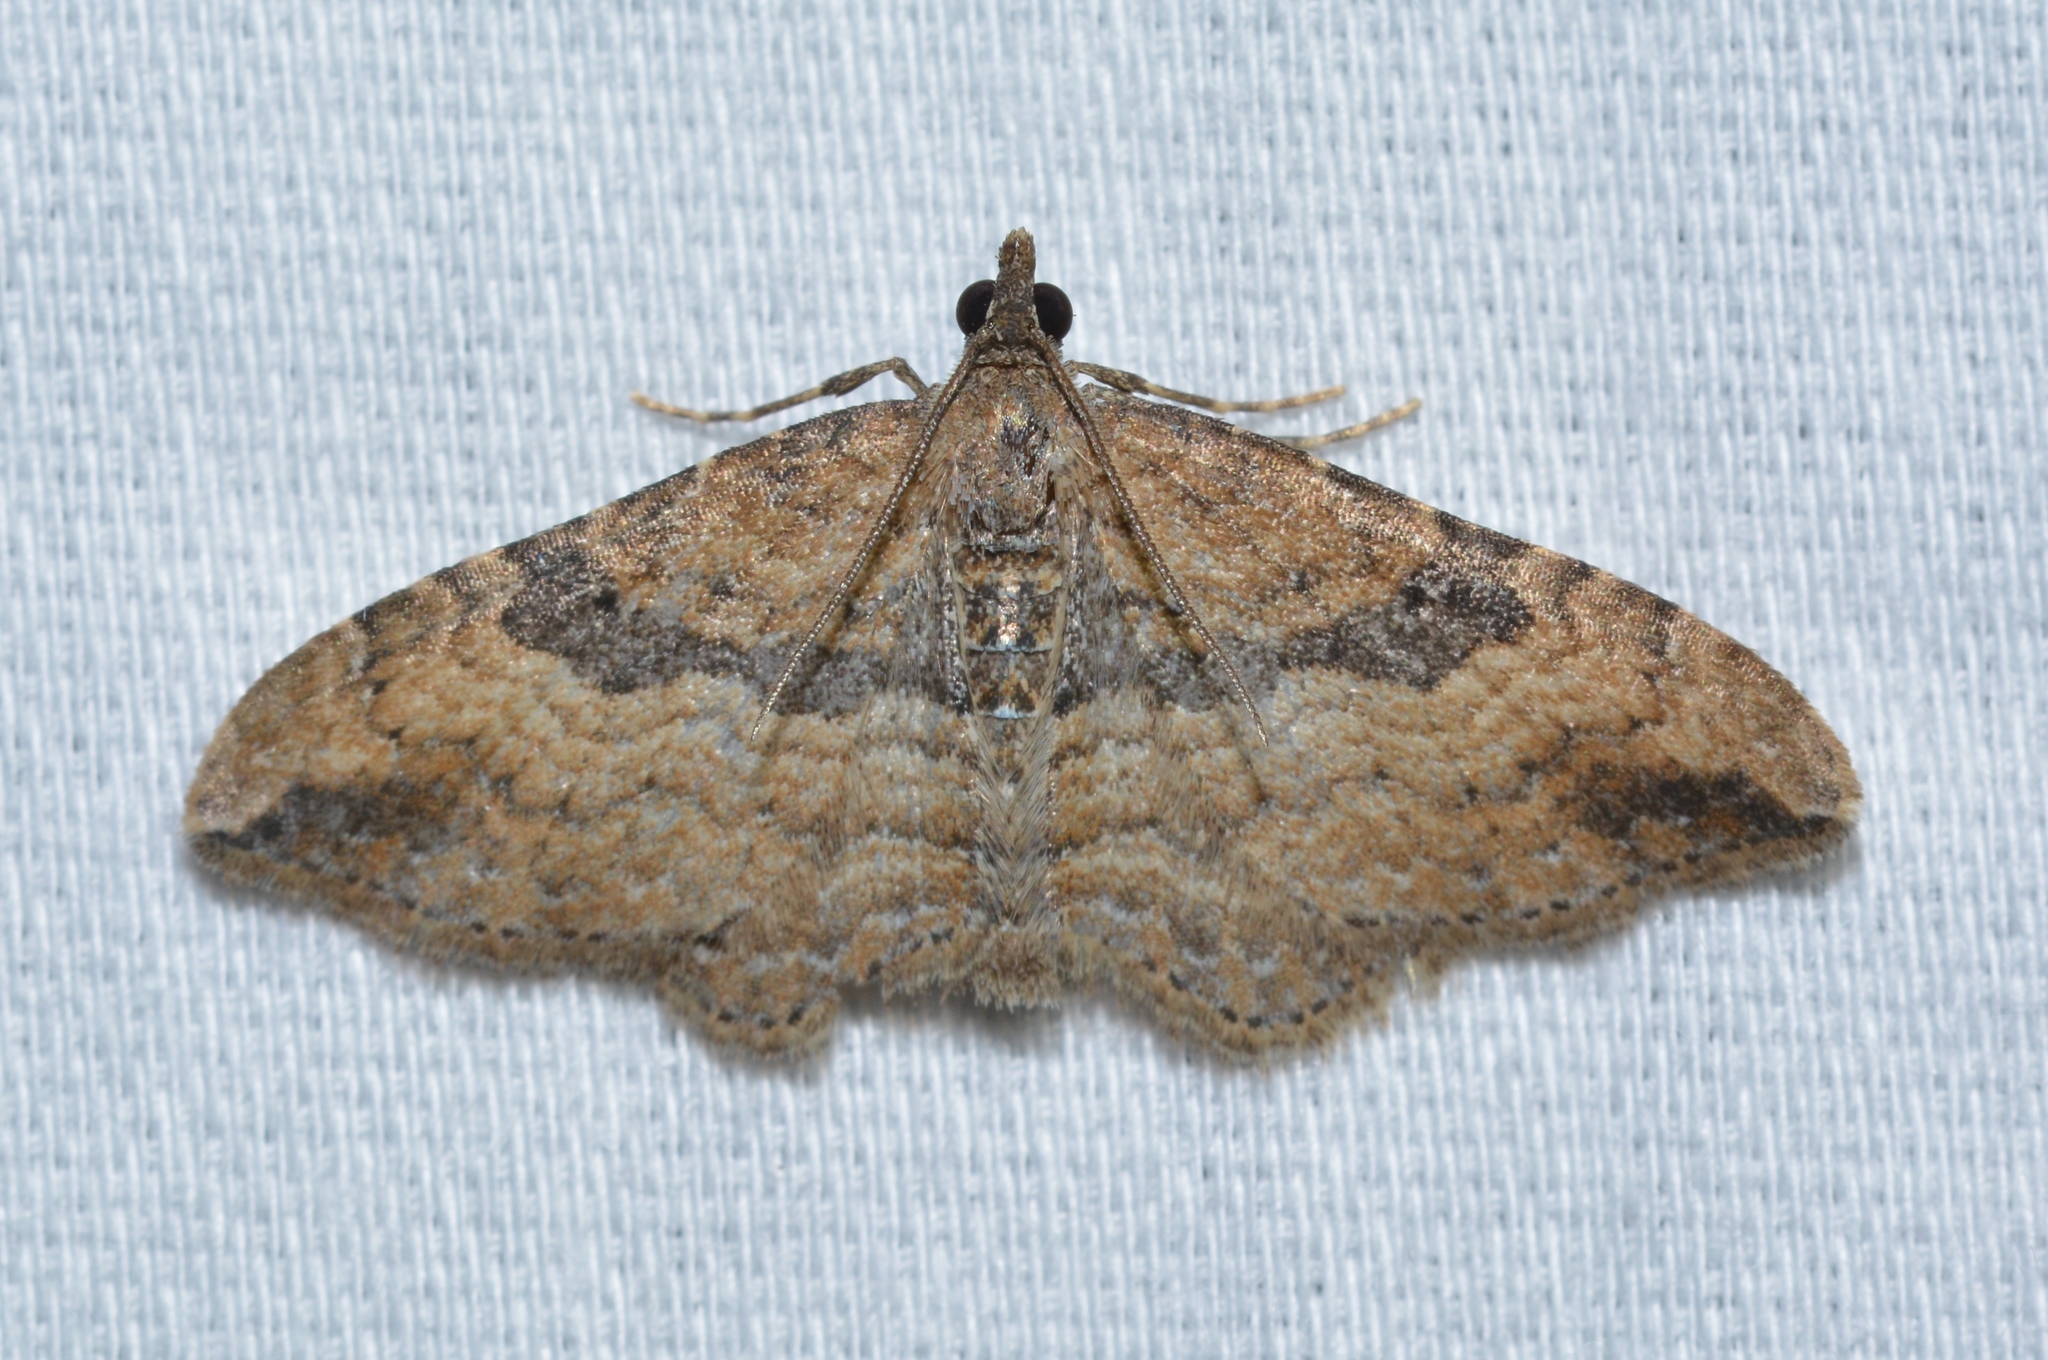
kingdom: Animalia
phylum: Arthropoda
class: Insecta
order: Lepidoptera
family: Geometridae
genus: Orthonama
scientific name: Orthonama obstipata
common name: The gem
